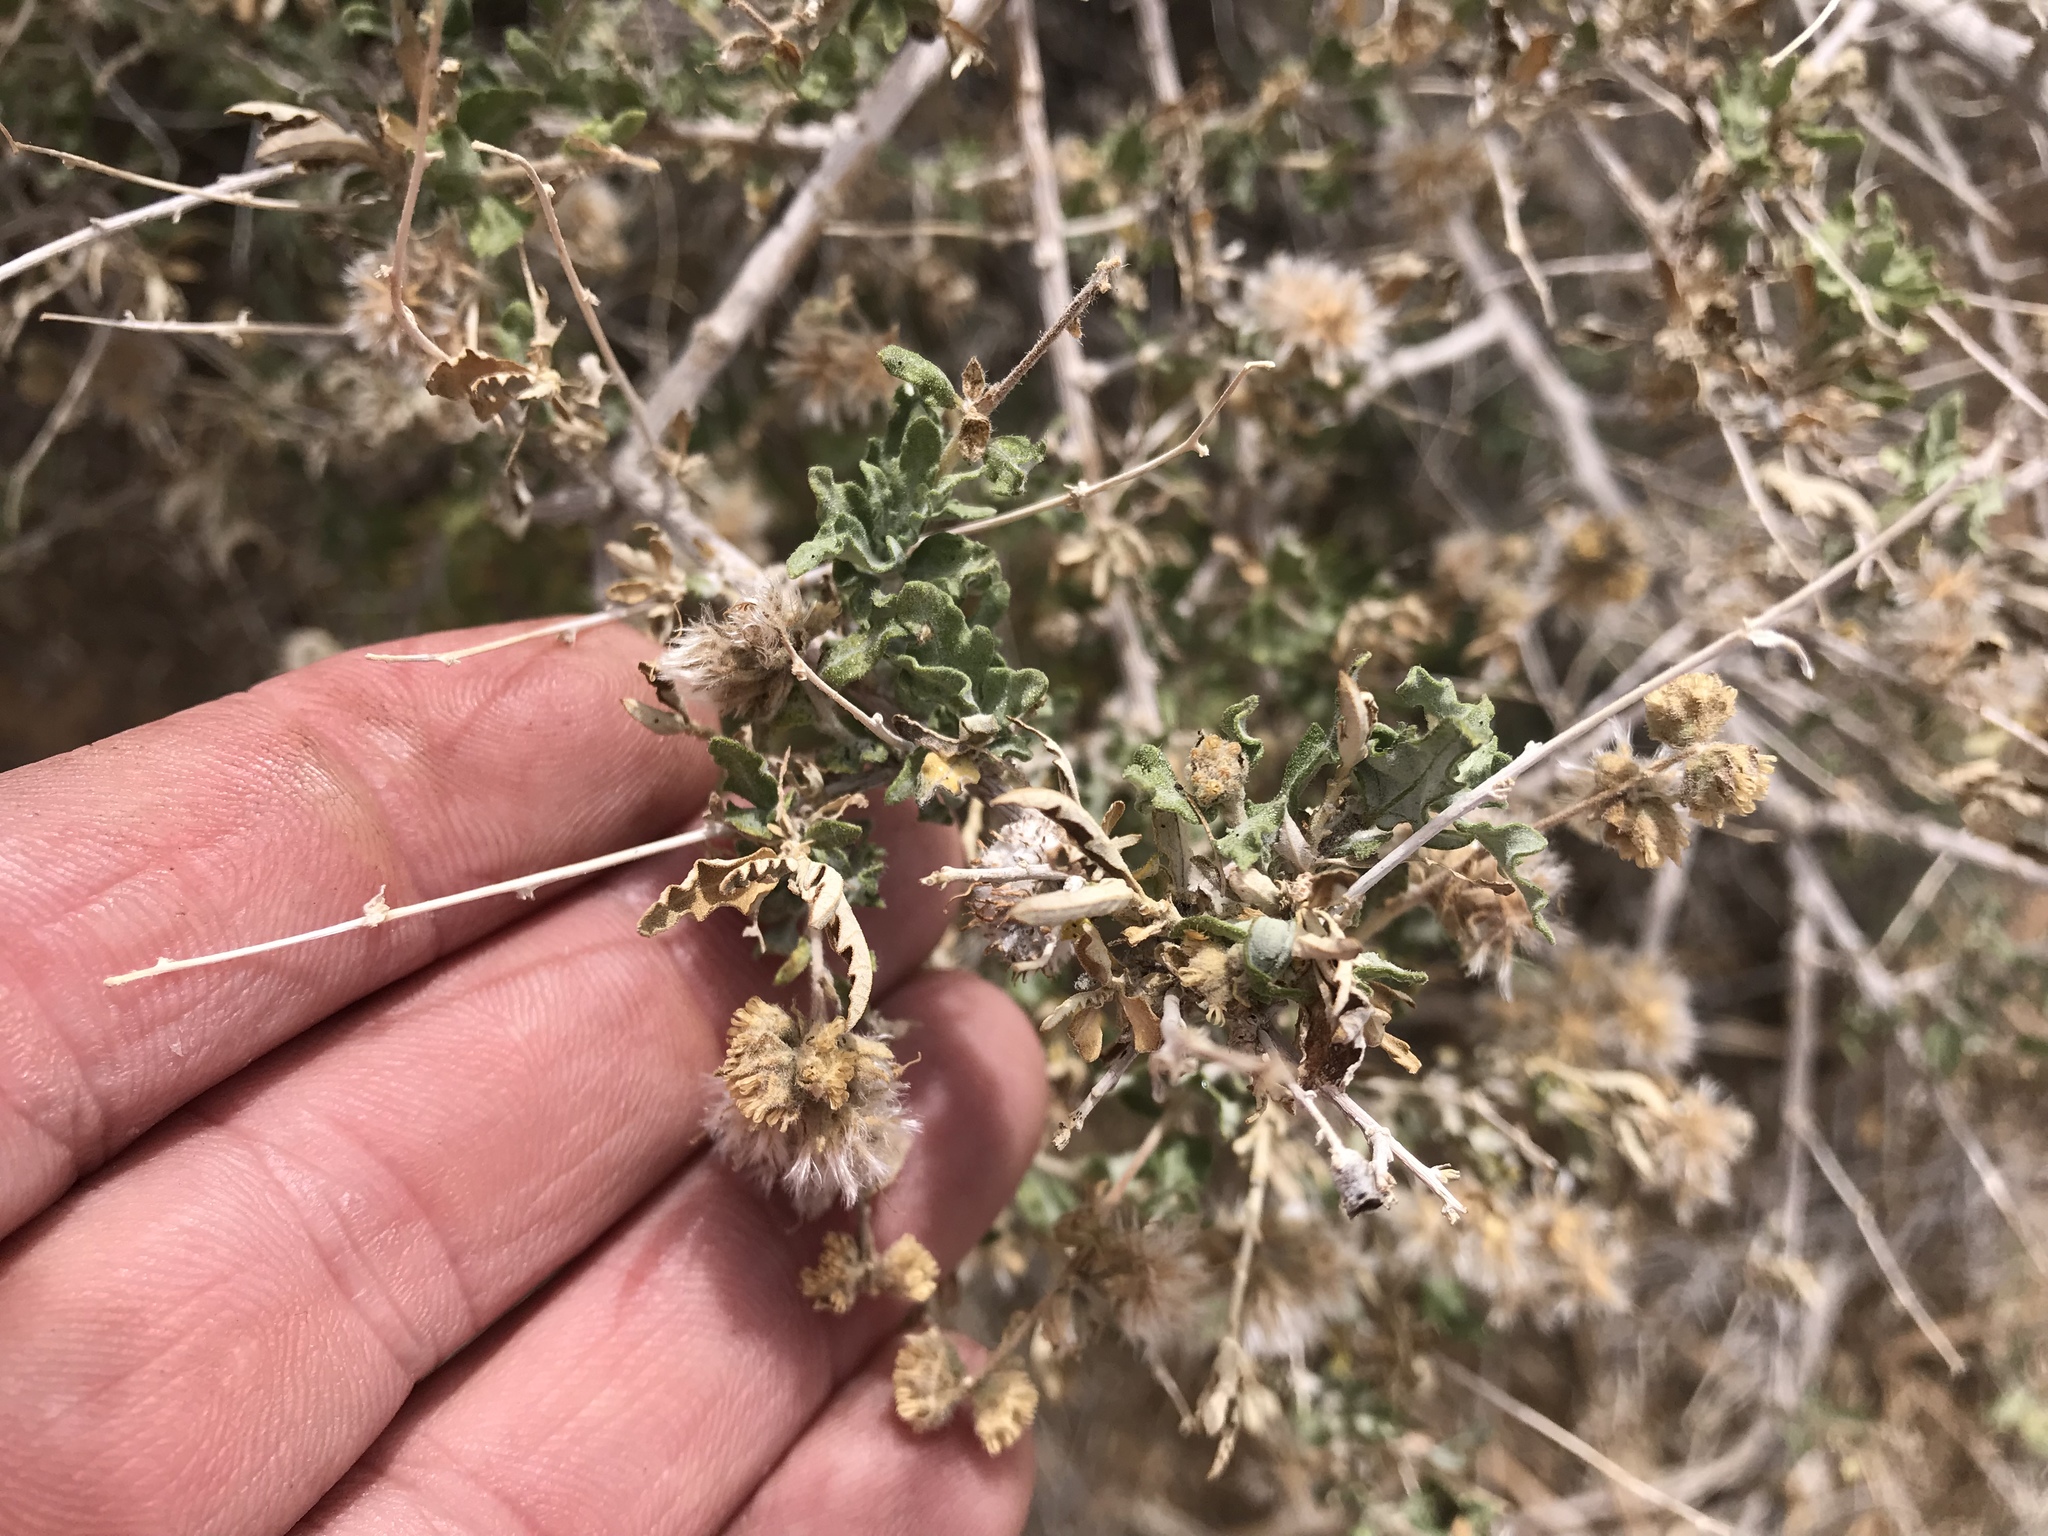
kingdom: Plantae
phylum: Tracheophyta
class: Magnoliopsida
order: Asterales
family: Asteraceae
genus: Ambrosia
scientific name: Ambrosia eriocentra
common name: Woolly bur-sage
